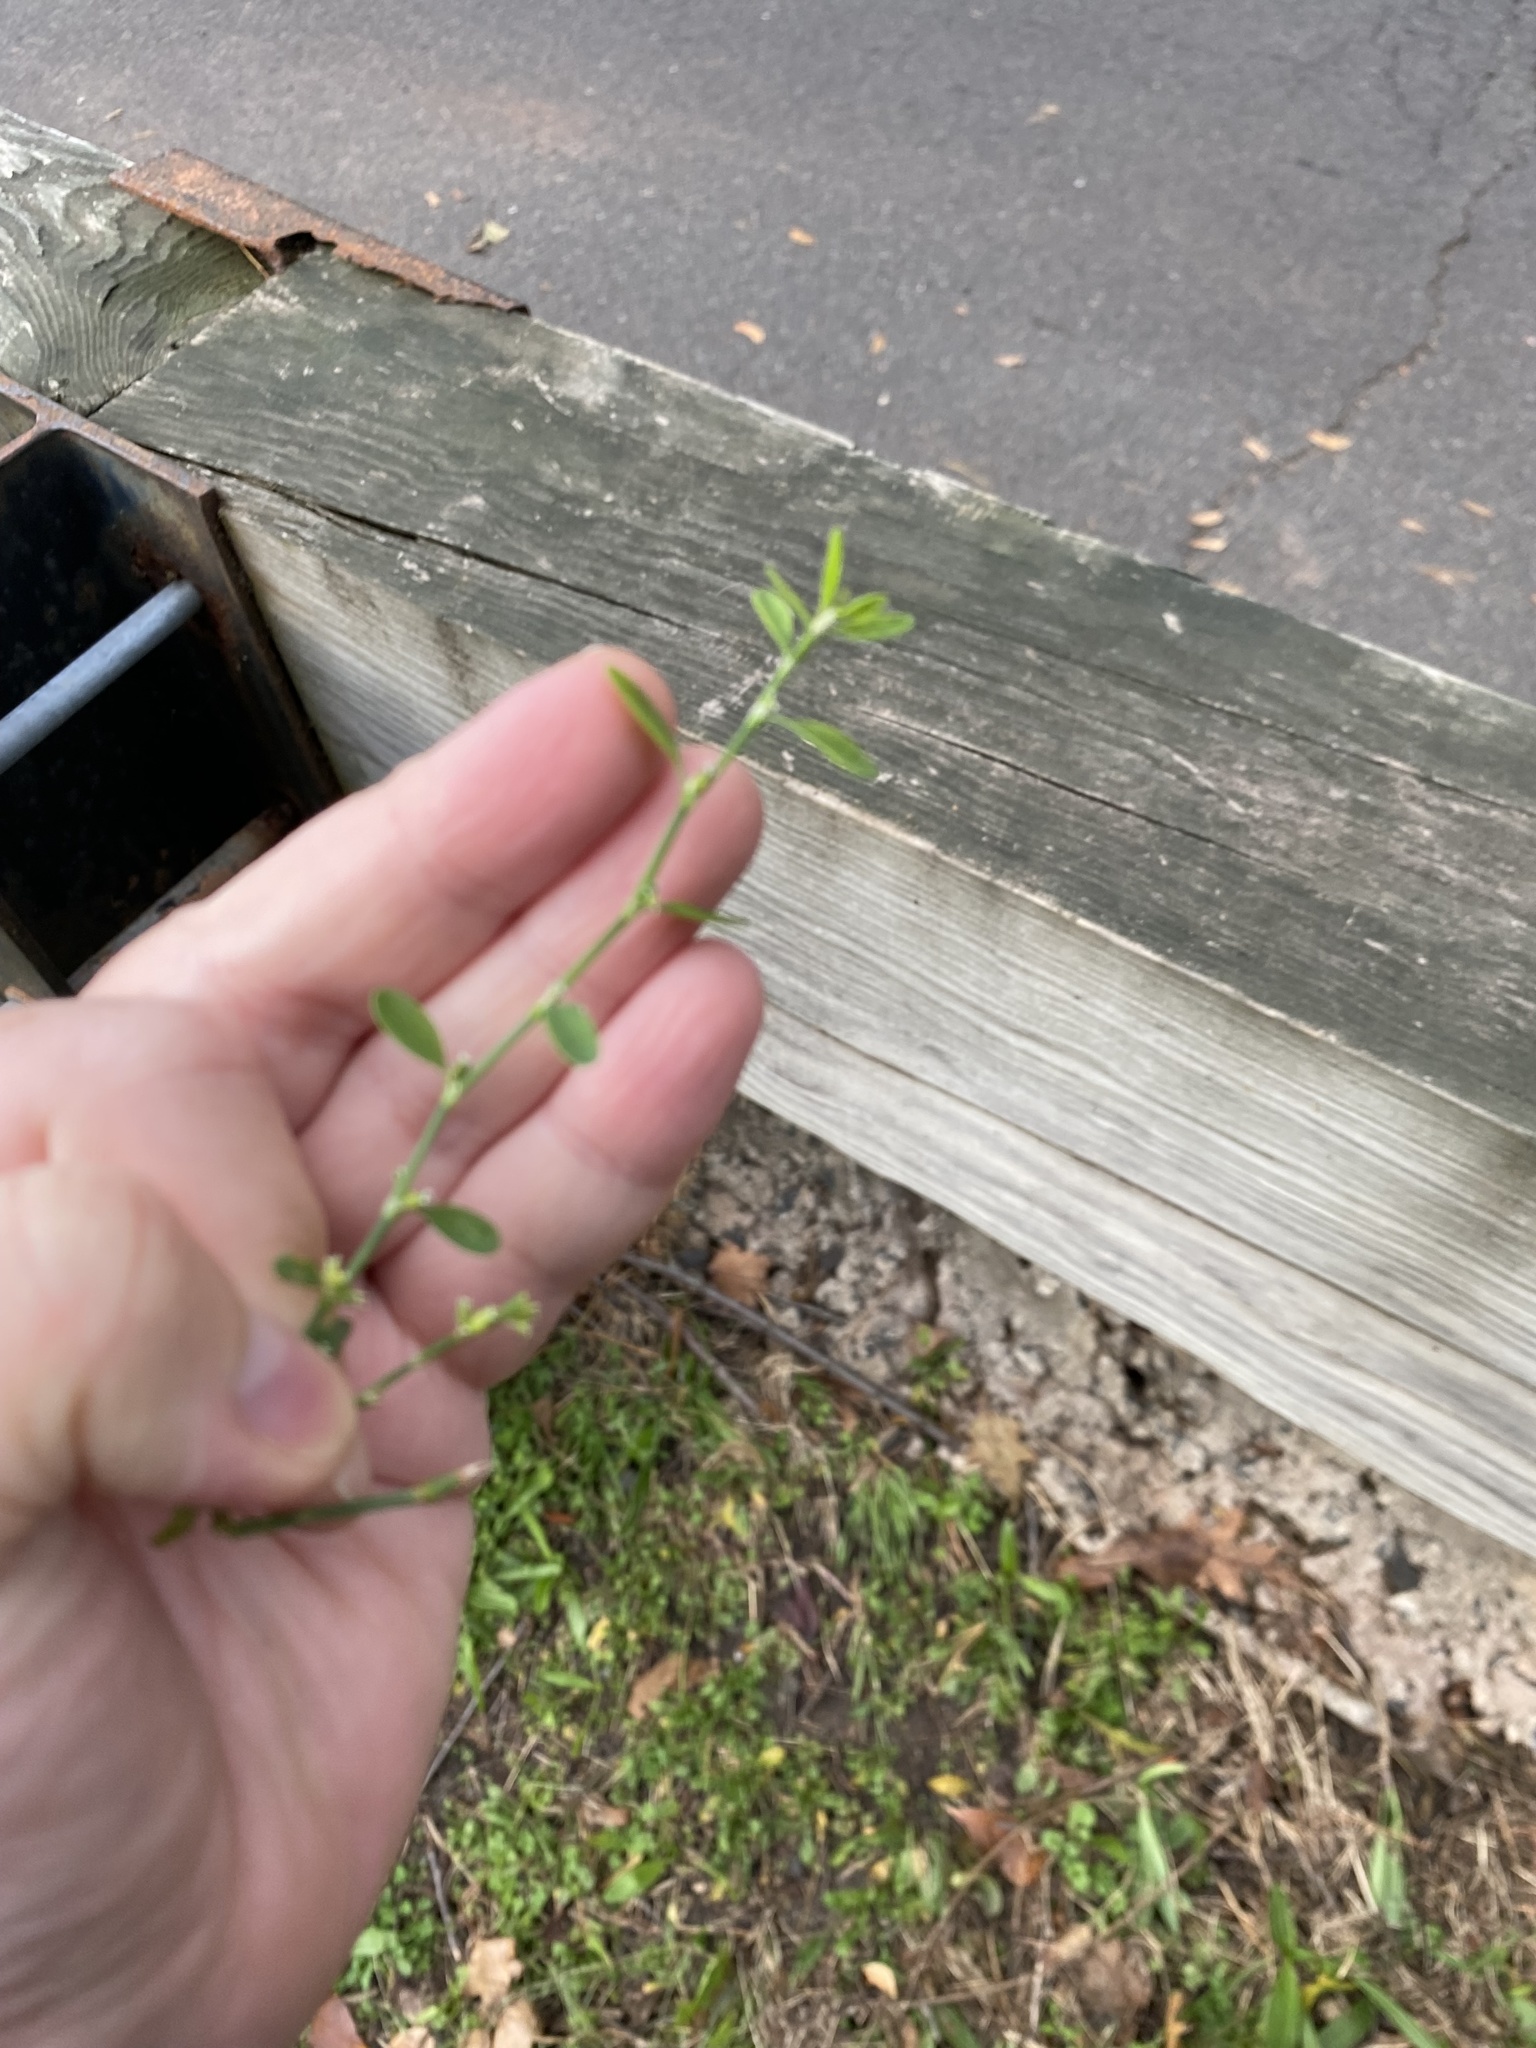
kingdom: Plantae
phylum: Tracheophyta
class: Magnoliopsida
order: Caryophyllales
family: Polygonaceae
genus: Polygonum
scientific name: Polygonum aviculare
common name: Prostrate knotweed
